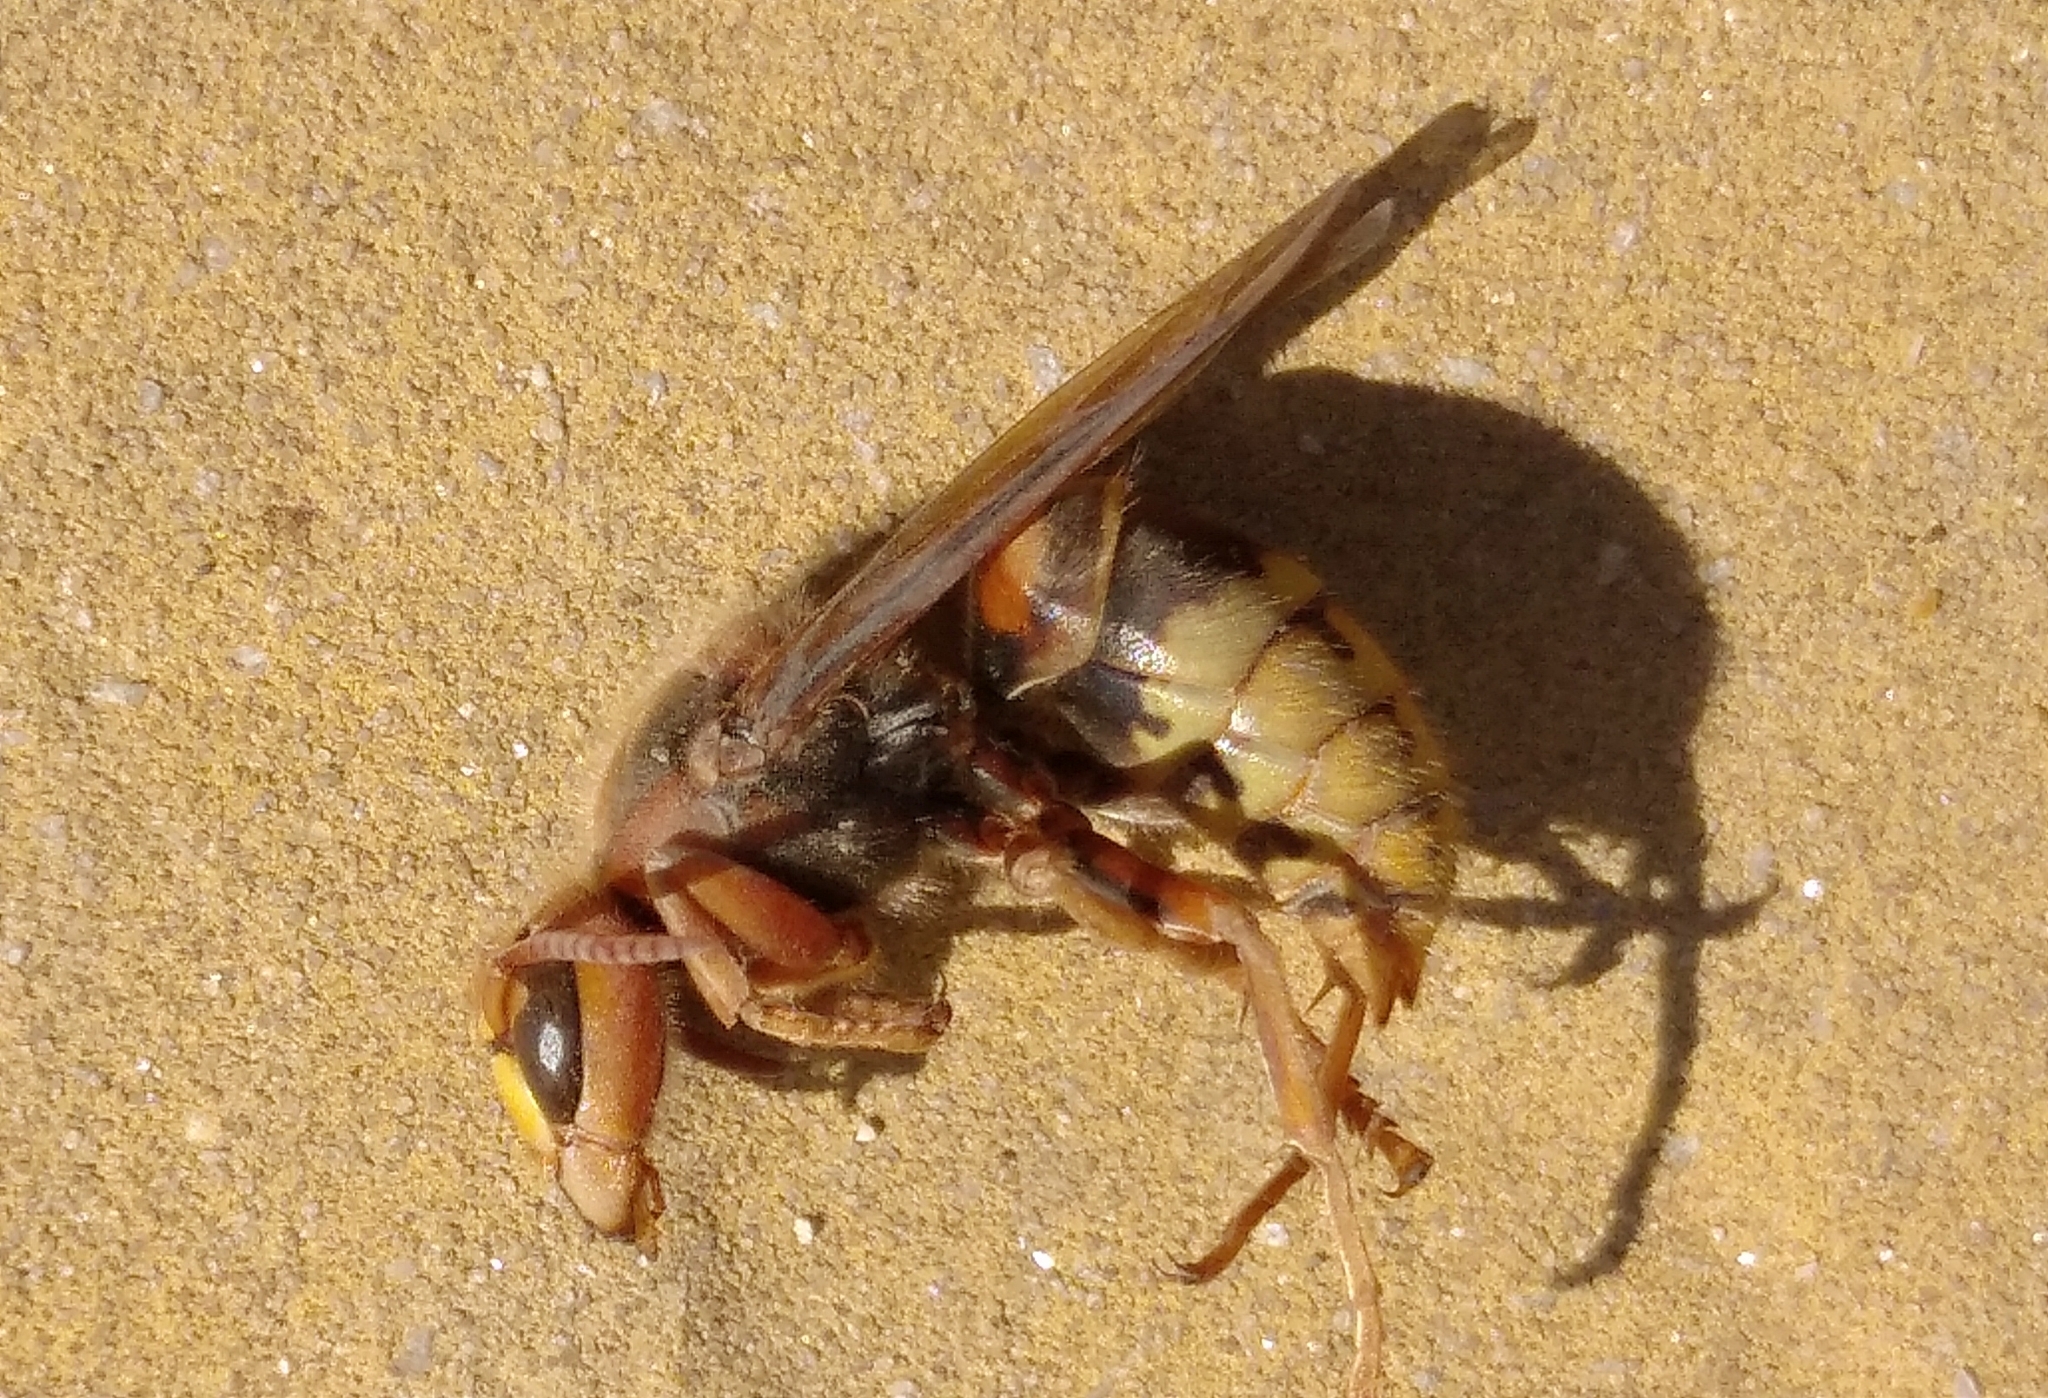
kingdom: Animalia
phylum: Arthropoda
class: Insecta
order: Hymenoptera
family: Vespidae
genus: Vespa
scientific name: Vespa crabro
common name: Hornet
